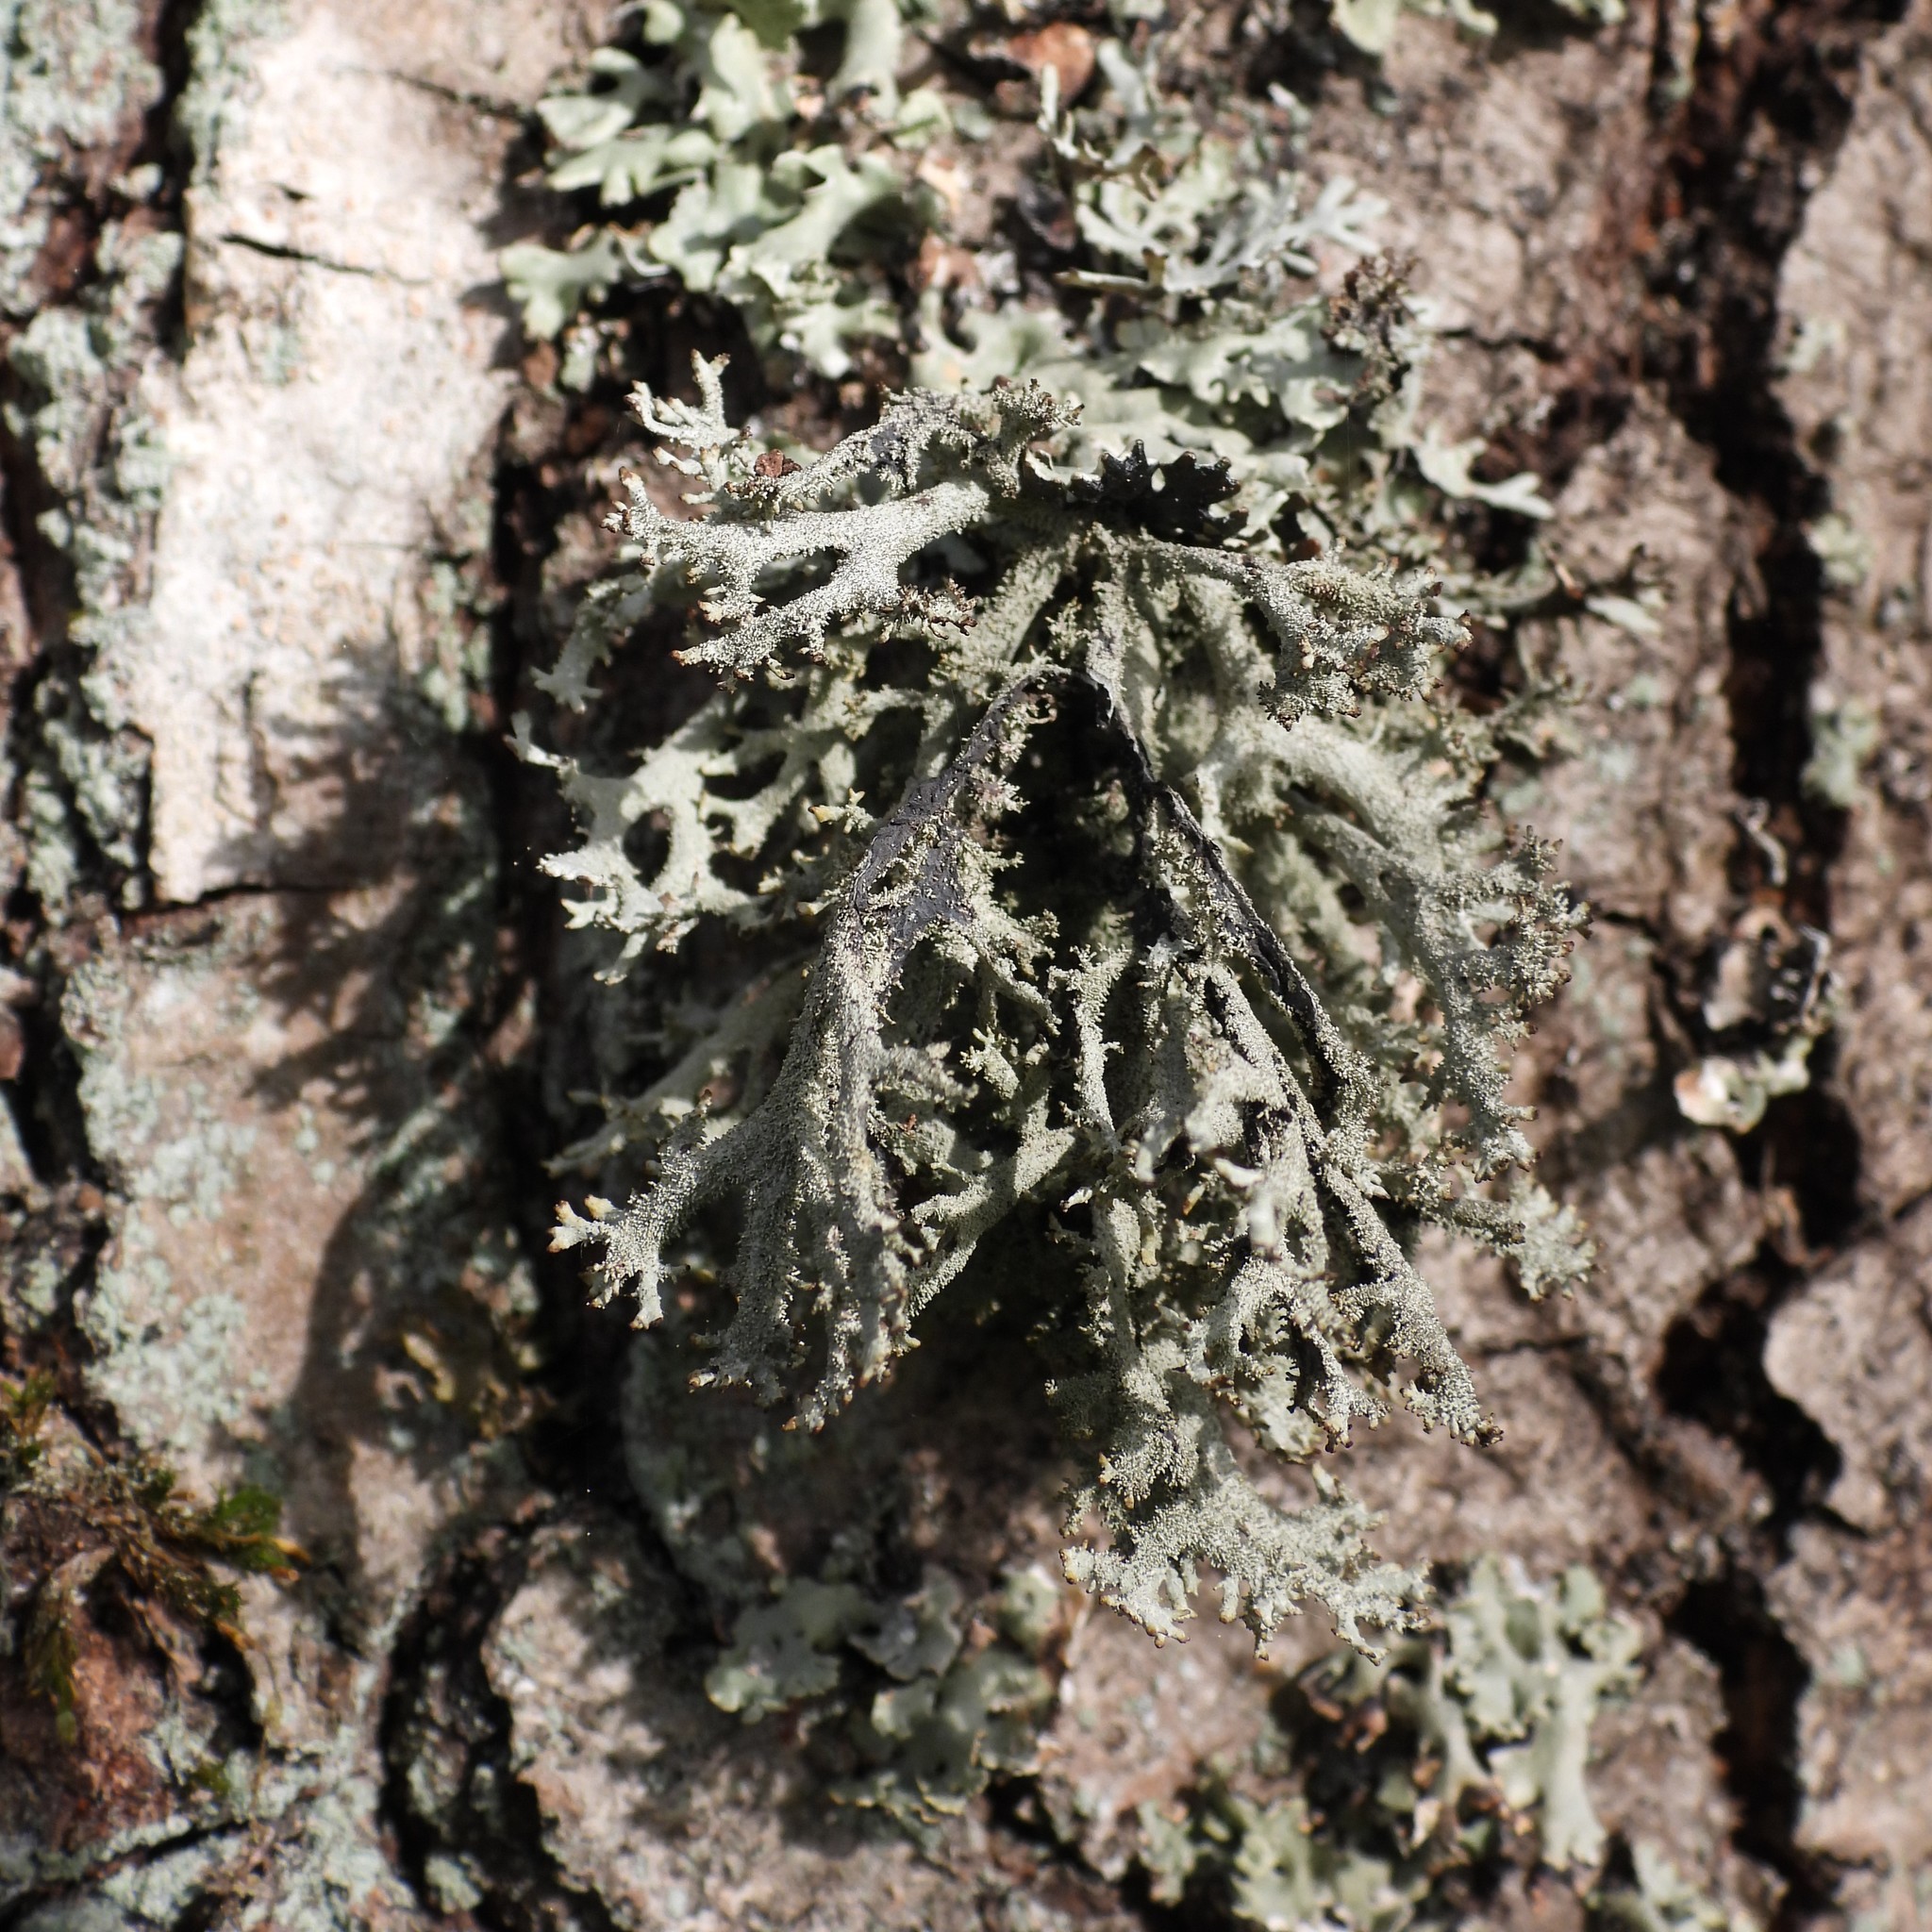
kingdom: Fungi
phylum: Ascomycota
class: Lecanoromycetes
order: Lecanorales
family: Parmeliaceae
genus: Pseudevernia
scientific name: Pseudevernia furfuracea
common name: Tree moss
